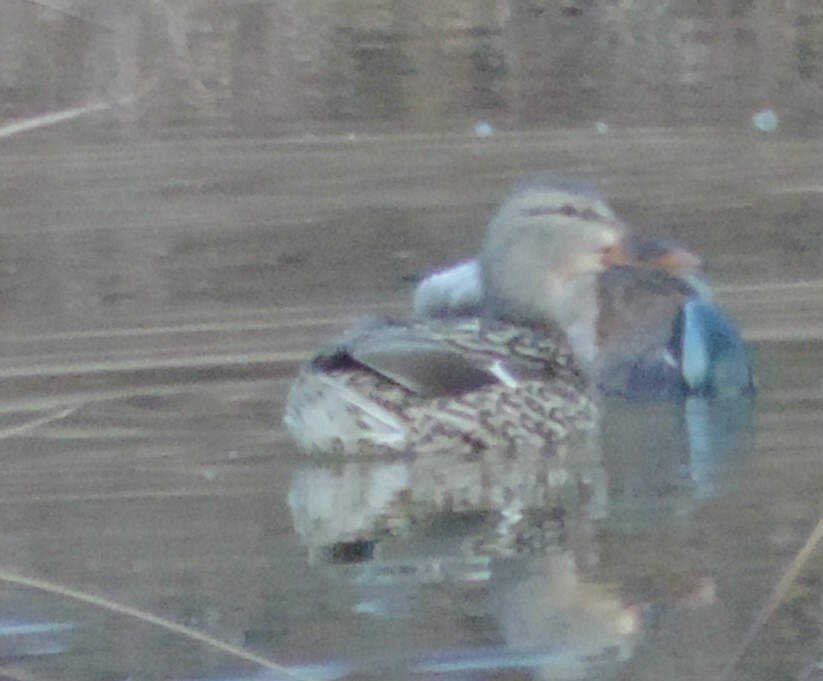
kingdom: Animalia
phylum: Chordata
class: Aves
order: Anseriformes
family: Anatidae
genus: Anas
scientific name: Anas platyrhynchos
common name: Mallard
